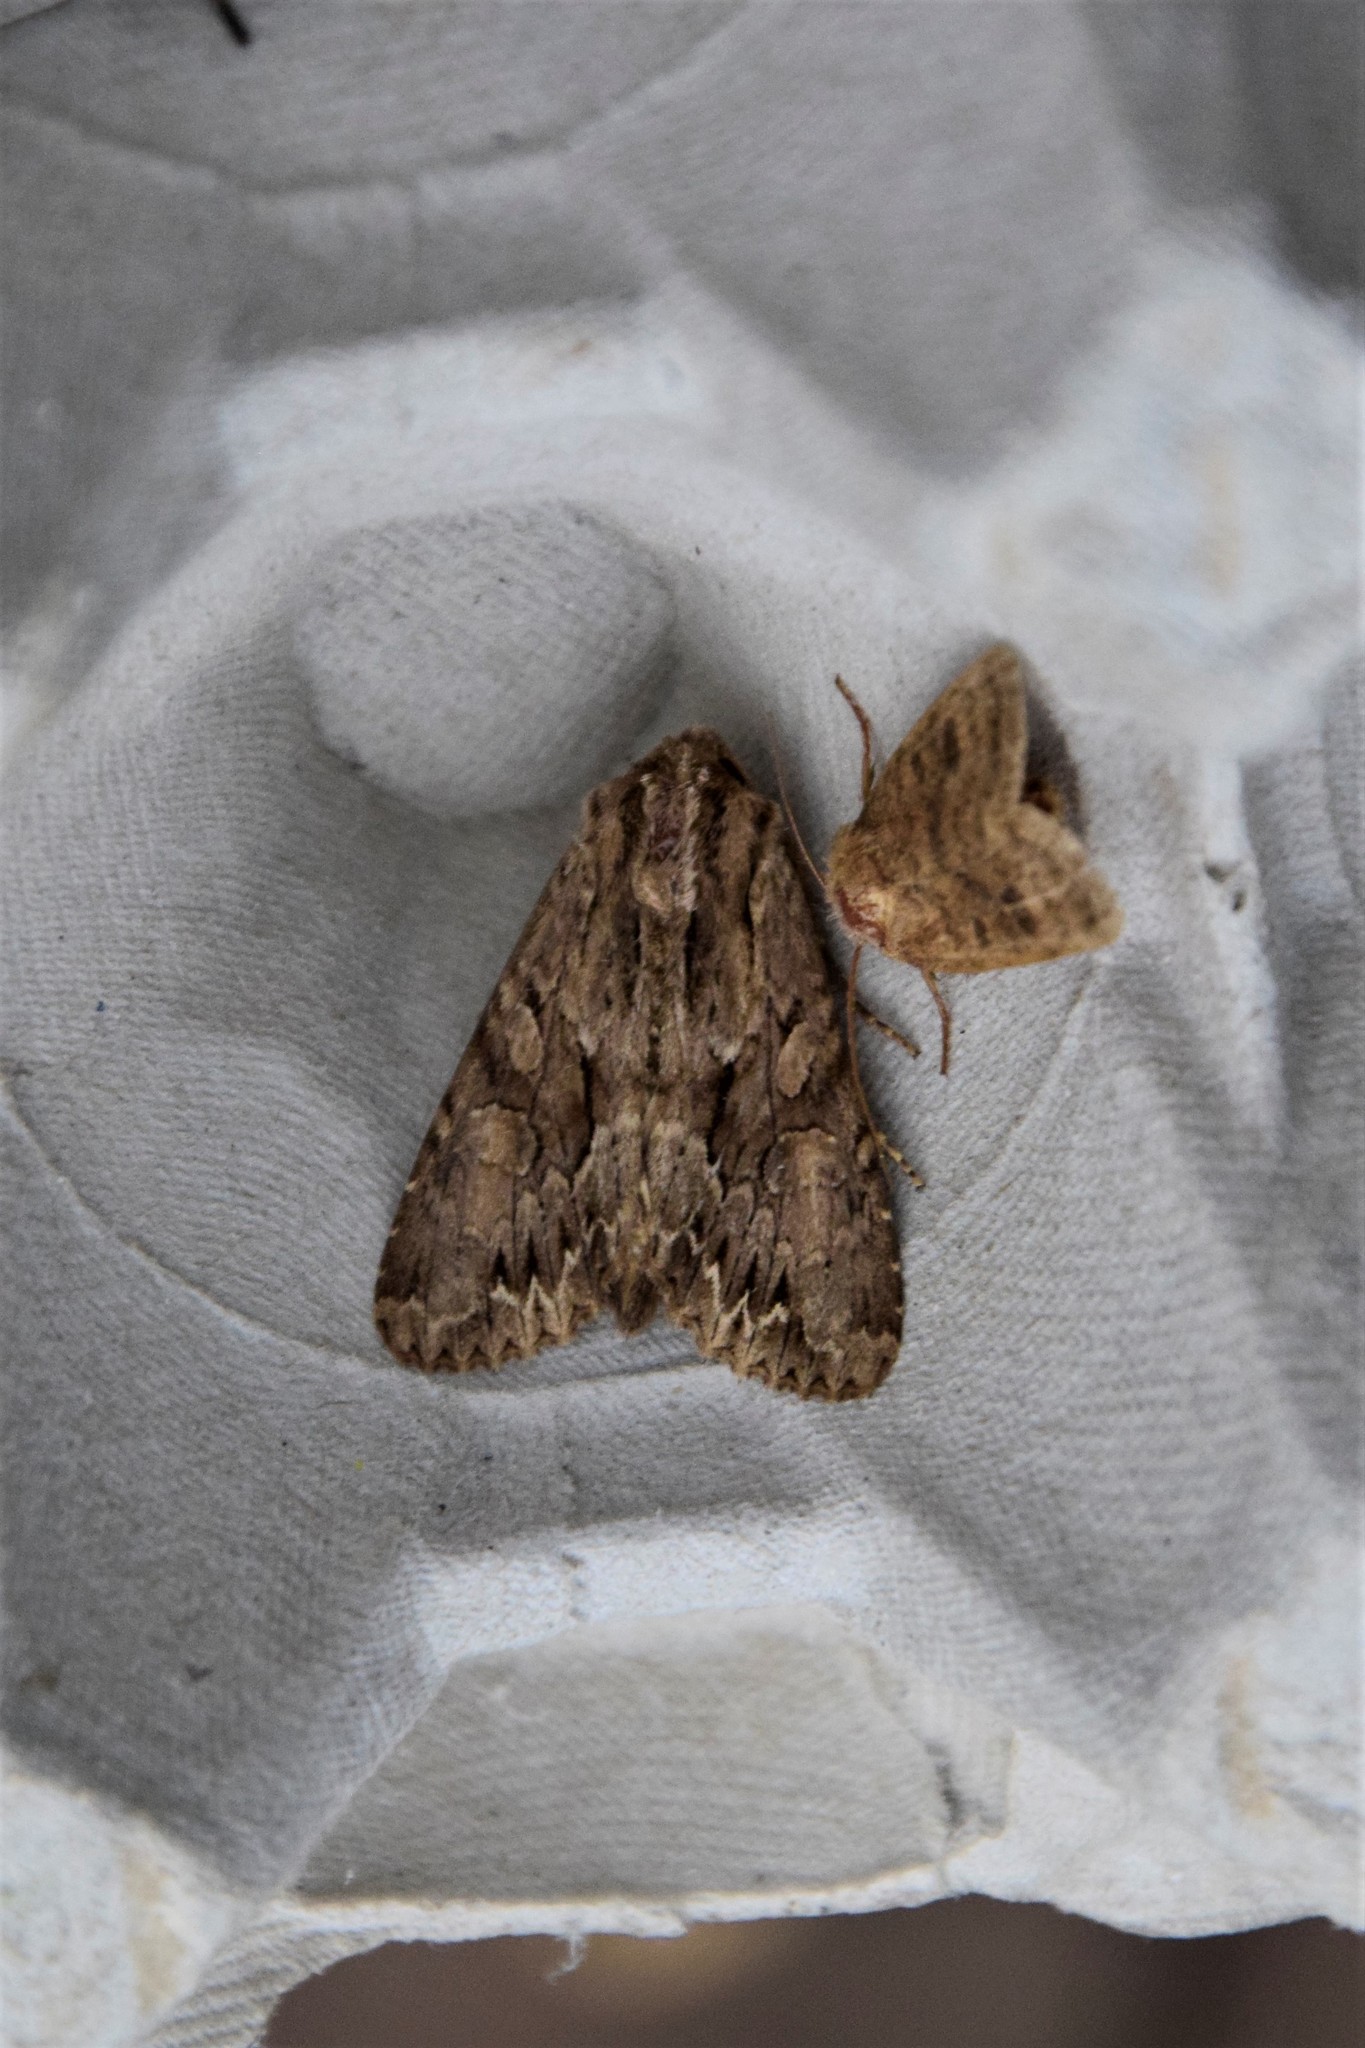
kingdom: Animalia
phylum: Arthropoda
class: Insecta
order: Lepidoptera
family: Noctuidae
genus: Apamea
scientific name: Apamea monoglypha
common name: Dark arches
